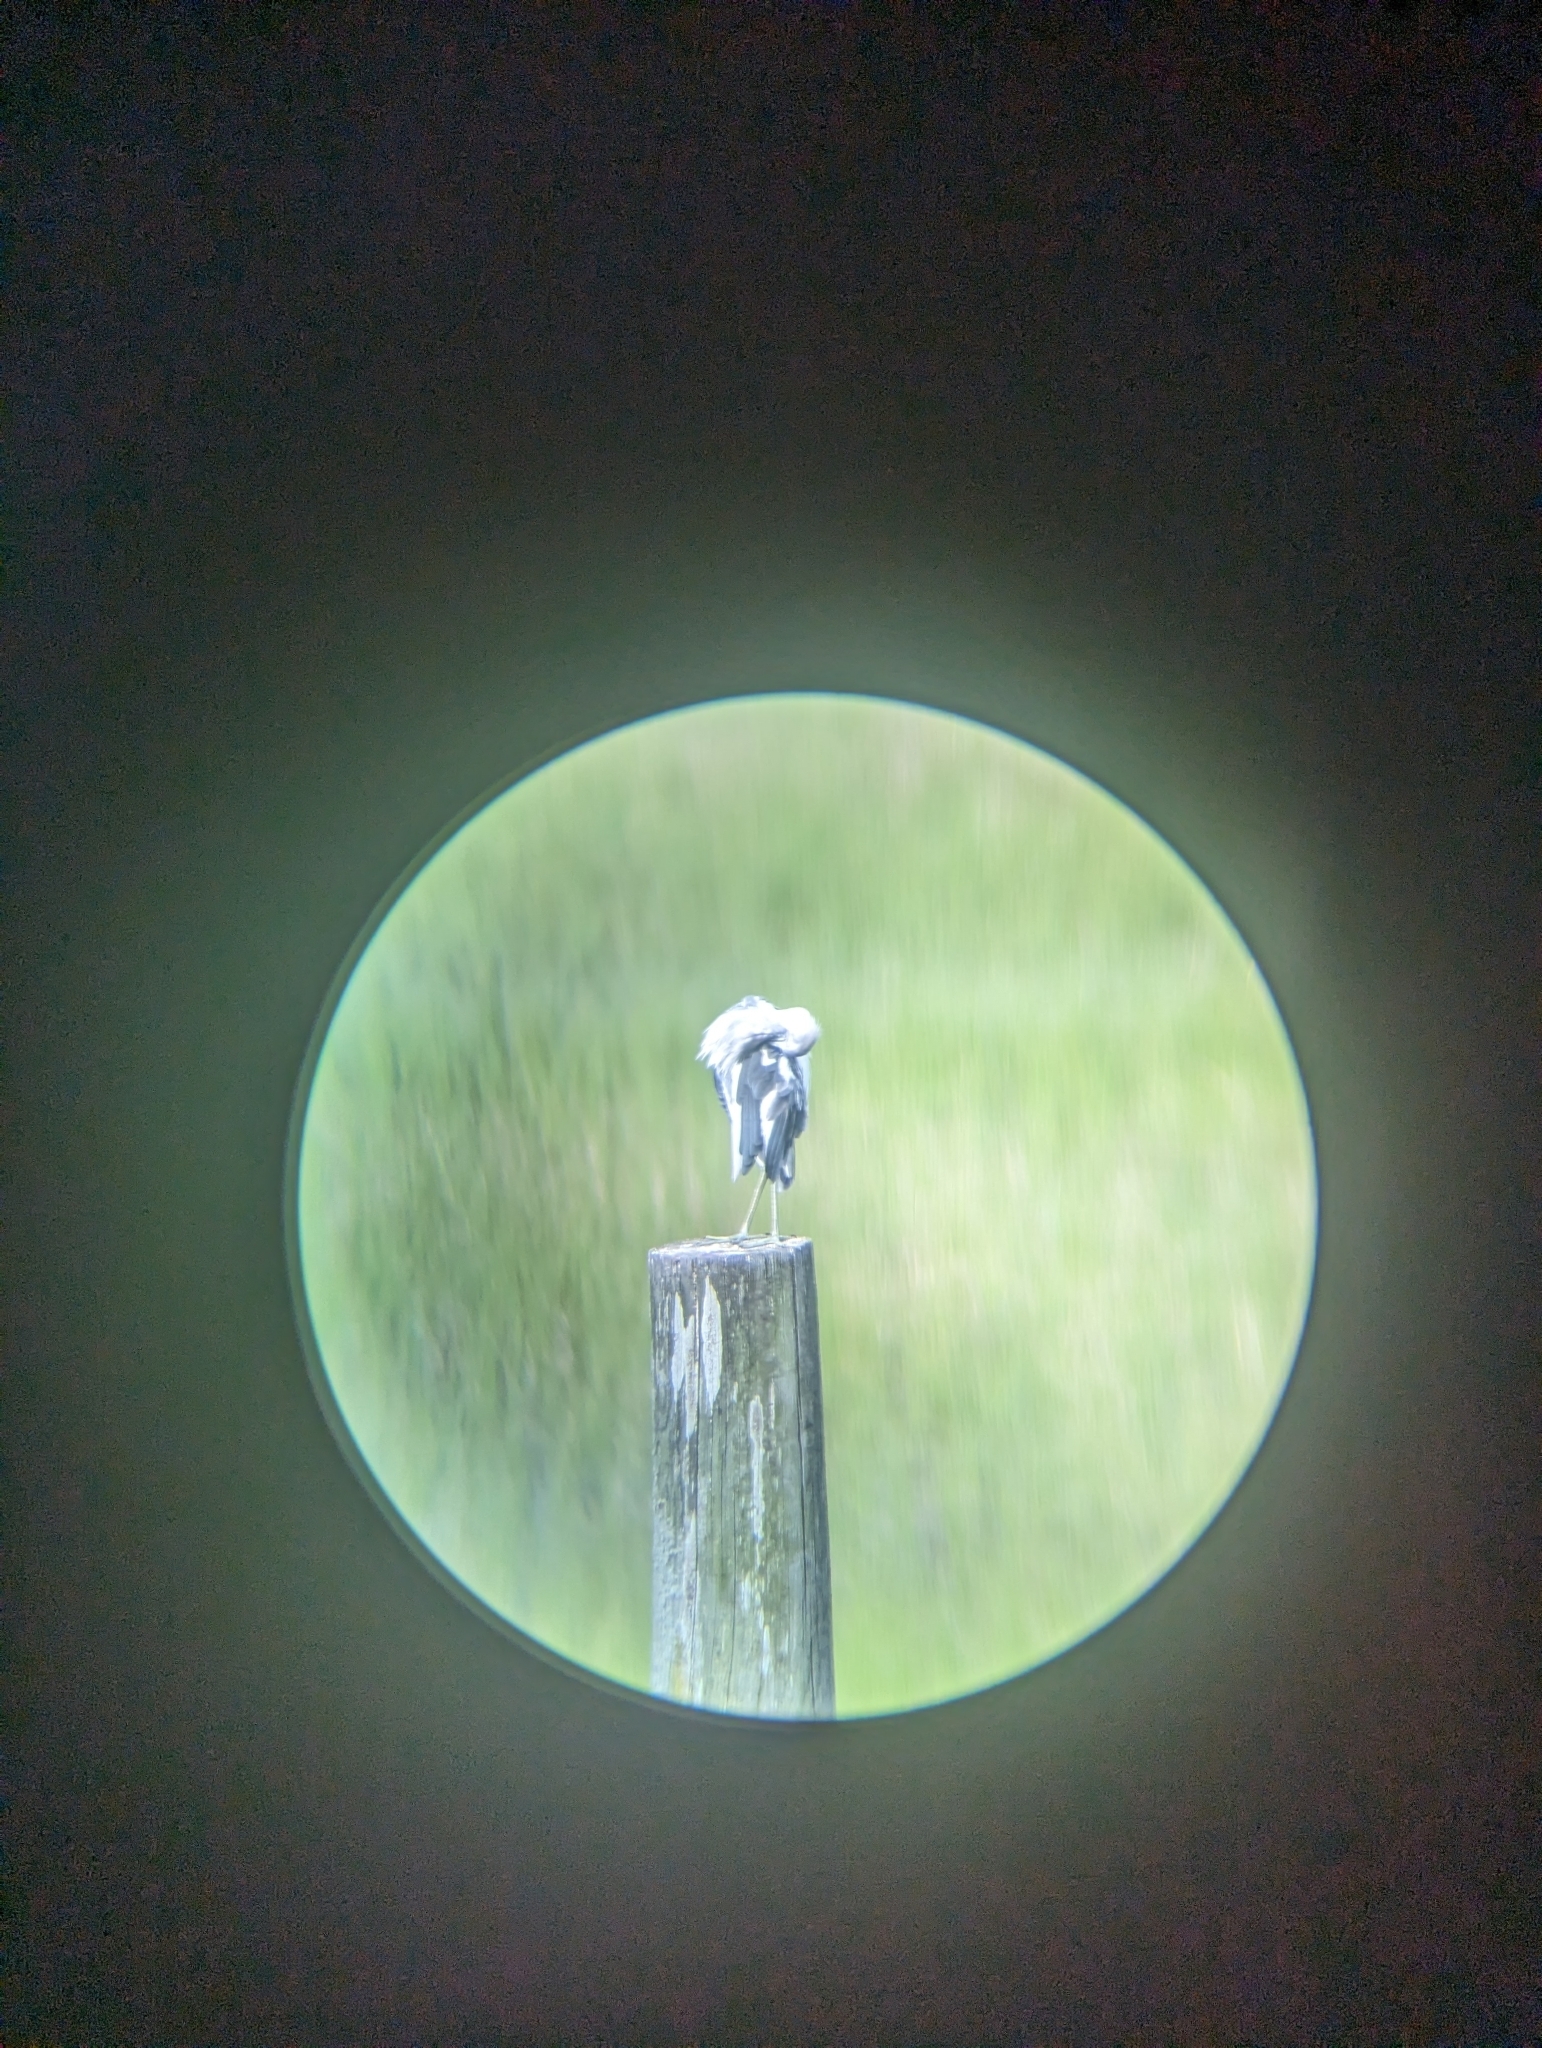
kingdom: Animalia
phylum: Chordata
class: Aves
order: Pelecaniformes
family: Ardeidae
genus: Egretta
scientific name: Egretta caerulea
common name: Little blue heron
